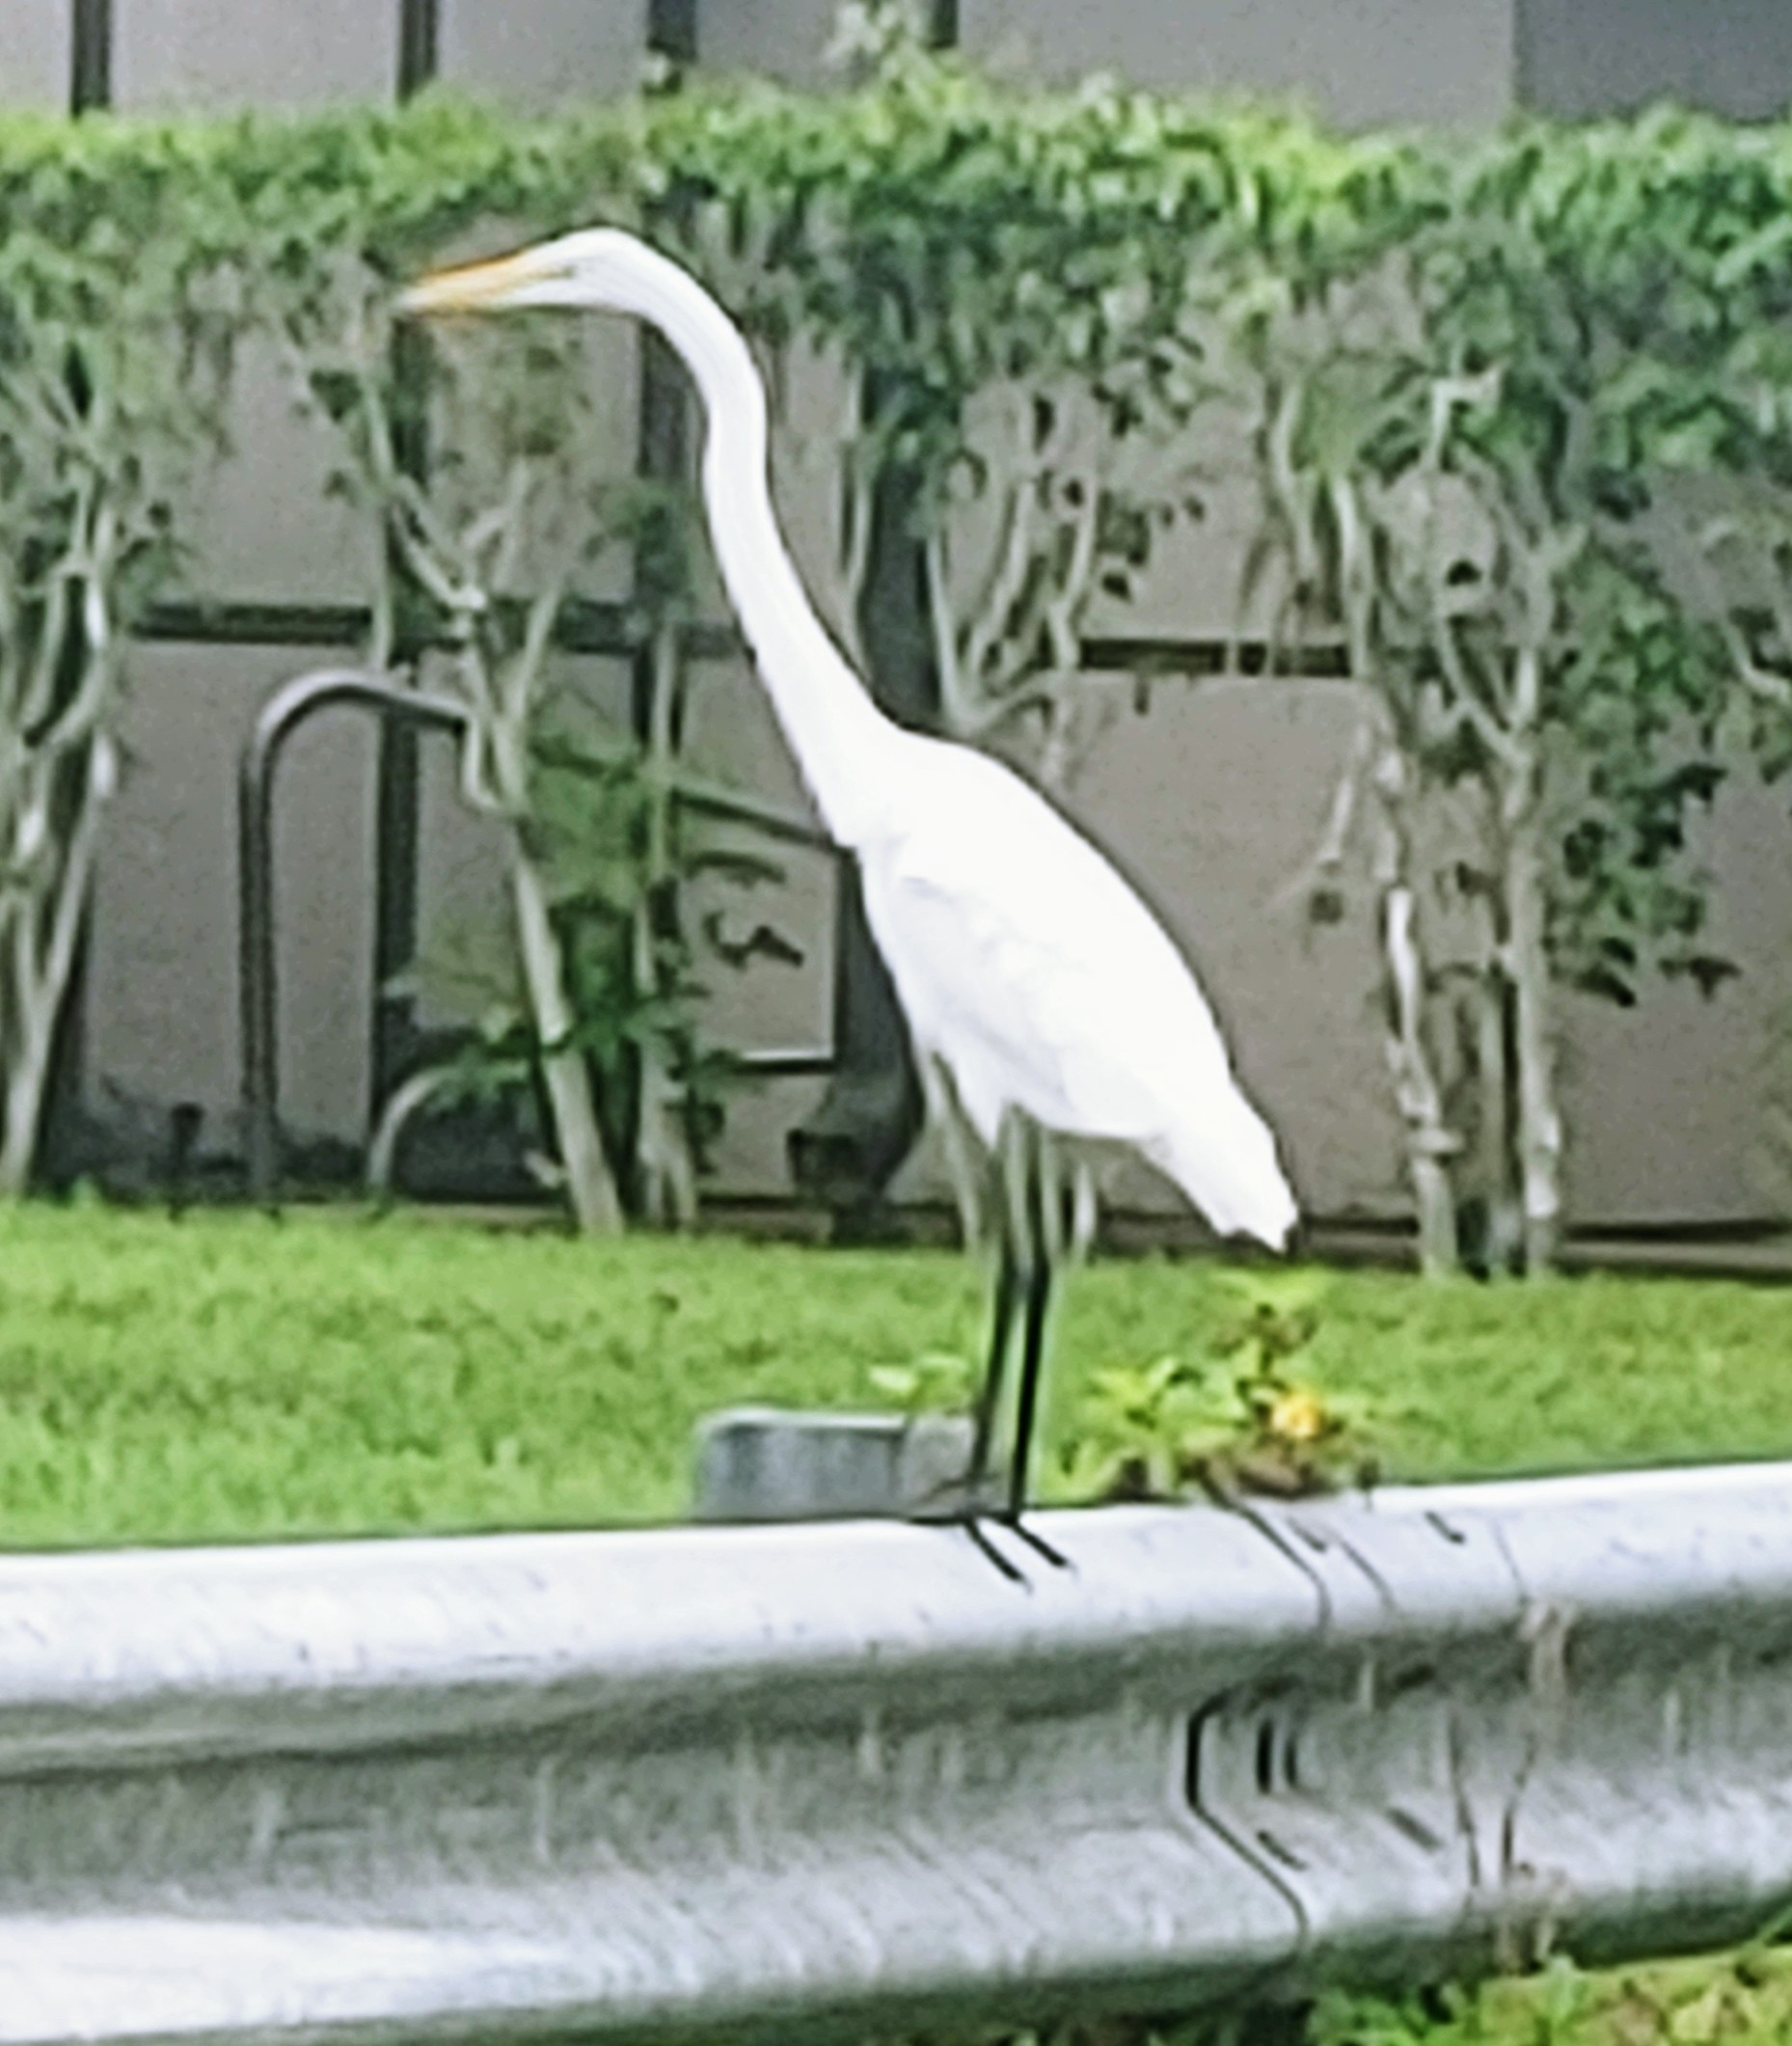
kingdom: Animalia
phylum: Chordata
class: Aves
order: Pelecaniformes
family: Ardeidae
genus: Ardea
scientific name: Ardea alba
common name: Great egret
